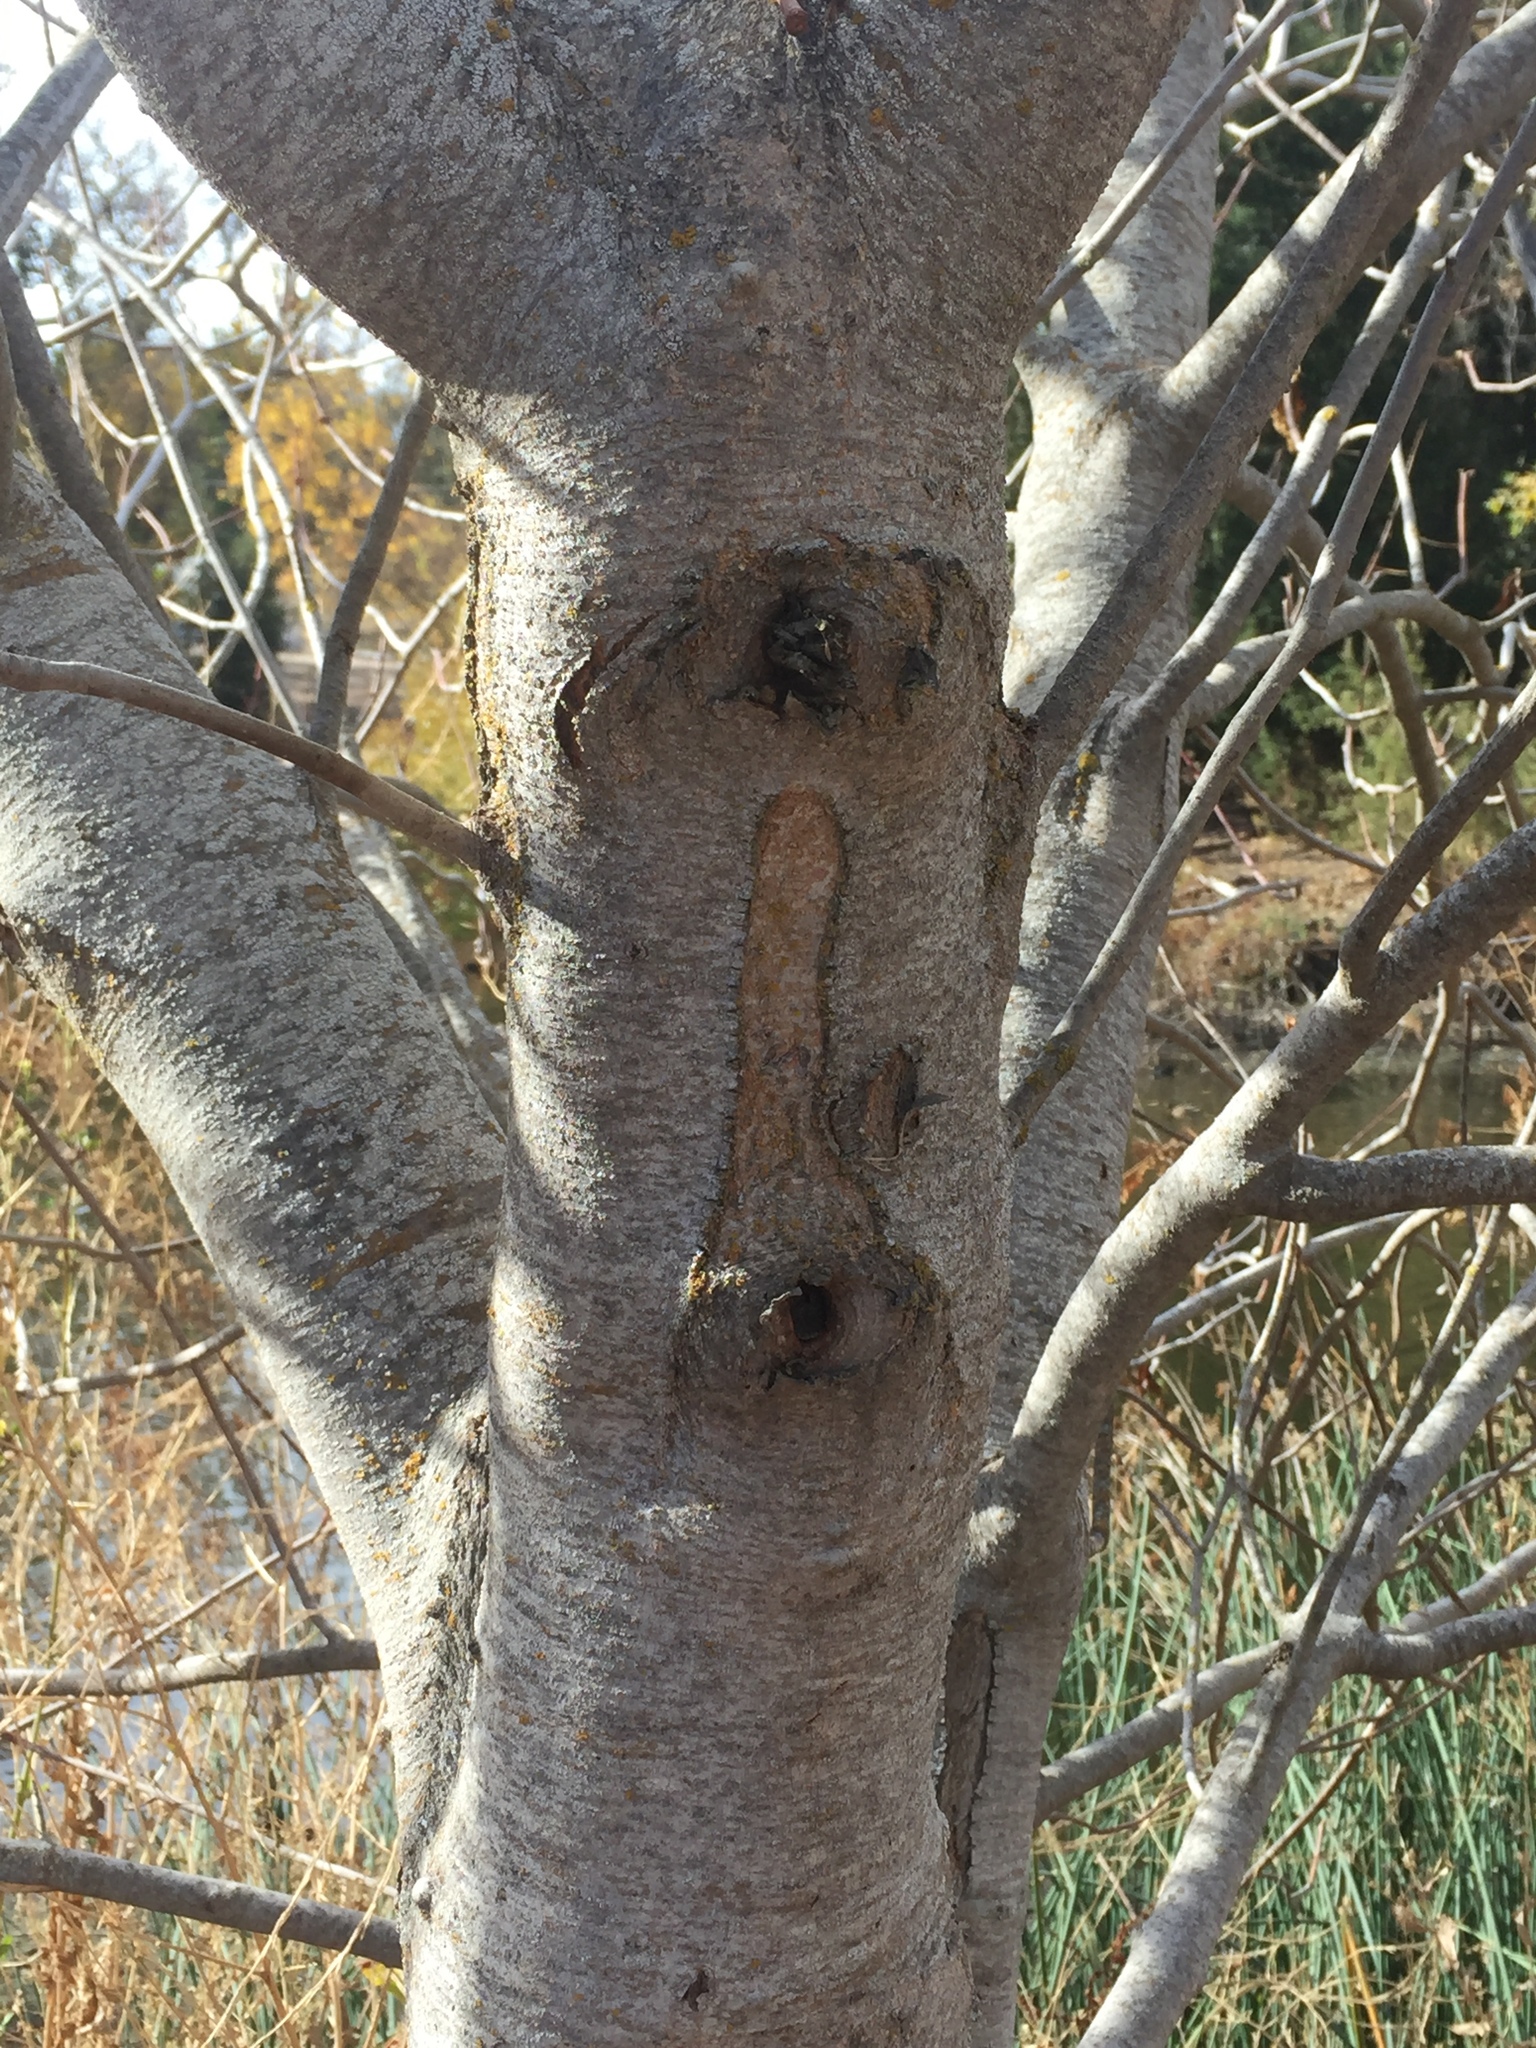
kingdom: Plantae
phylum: Tracheophyta
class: Magnoliopsida
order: Sapindales
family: Sapindaceae
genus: Aesculus
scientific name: Aesculus californica
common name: California buckeye
